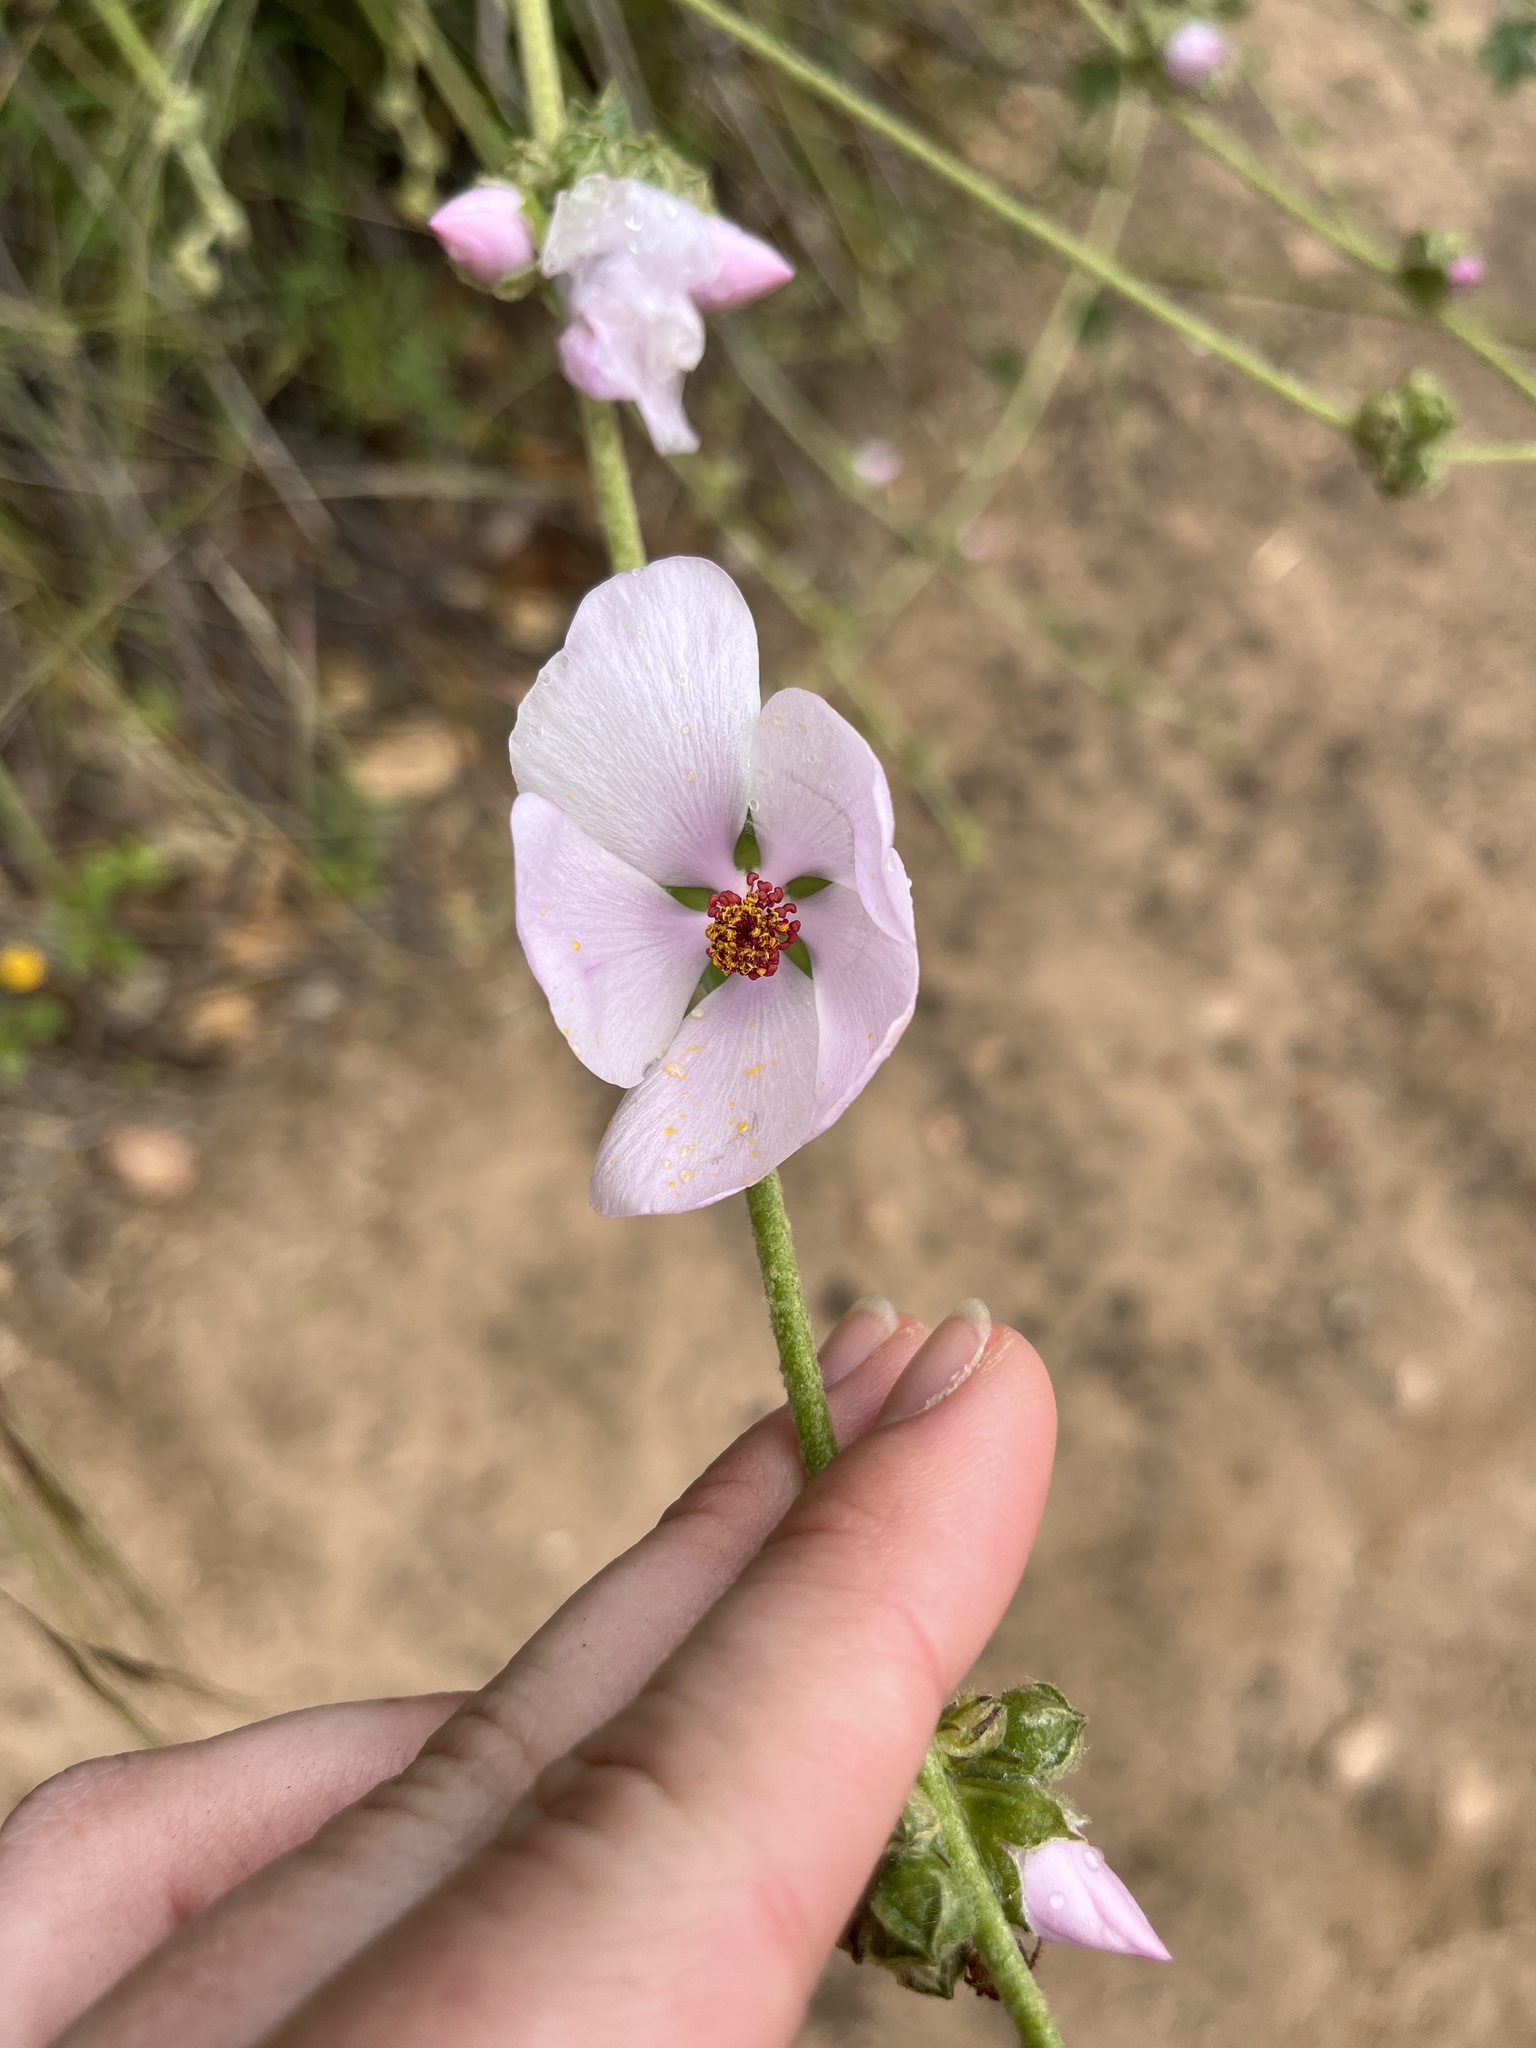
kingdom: Plantae
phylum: Tracheophyta
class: Magnoliopsida
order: Malvales
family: Malvaceae
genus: Malacothamnus
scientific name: Malacothamnus fasciculatus
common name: Sant cruz island bush-mallow
